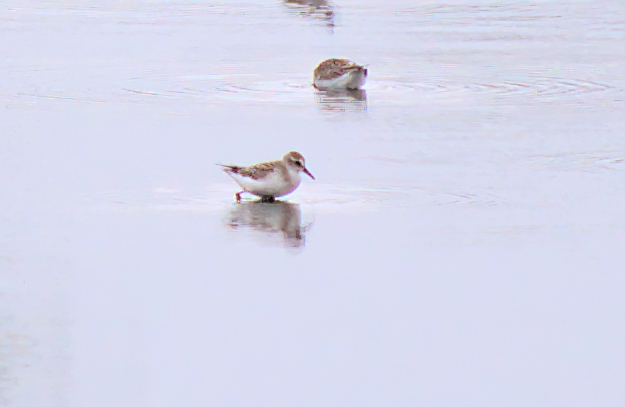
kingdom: Animalia
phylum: Chordata
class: Aves
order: Charadriiformes
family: Scolopacidae
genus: Calidris
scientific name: Calidris pusilla
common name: Semipalmated sandpiper
